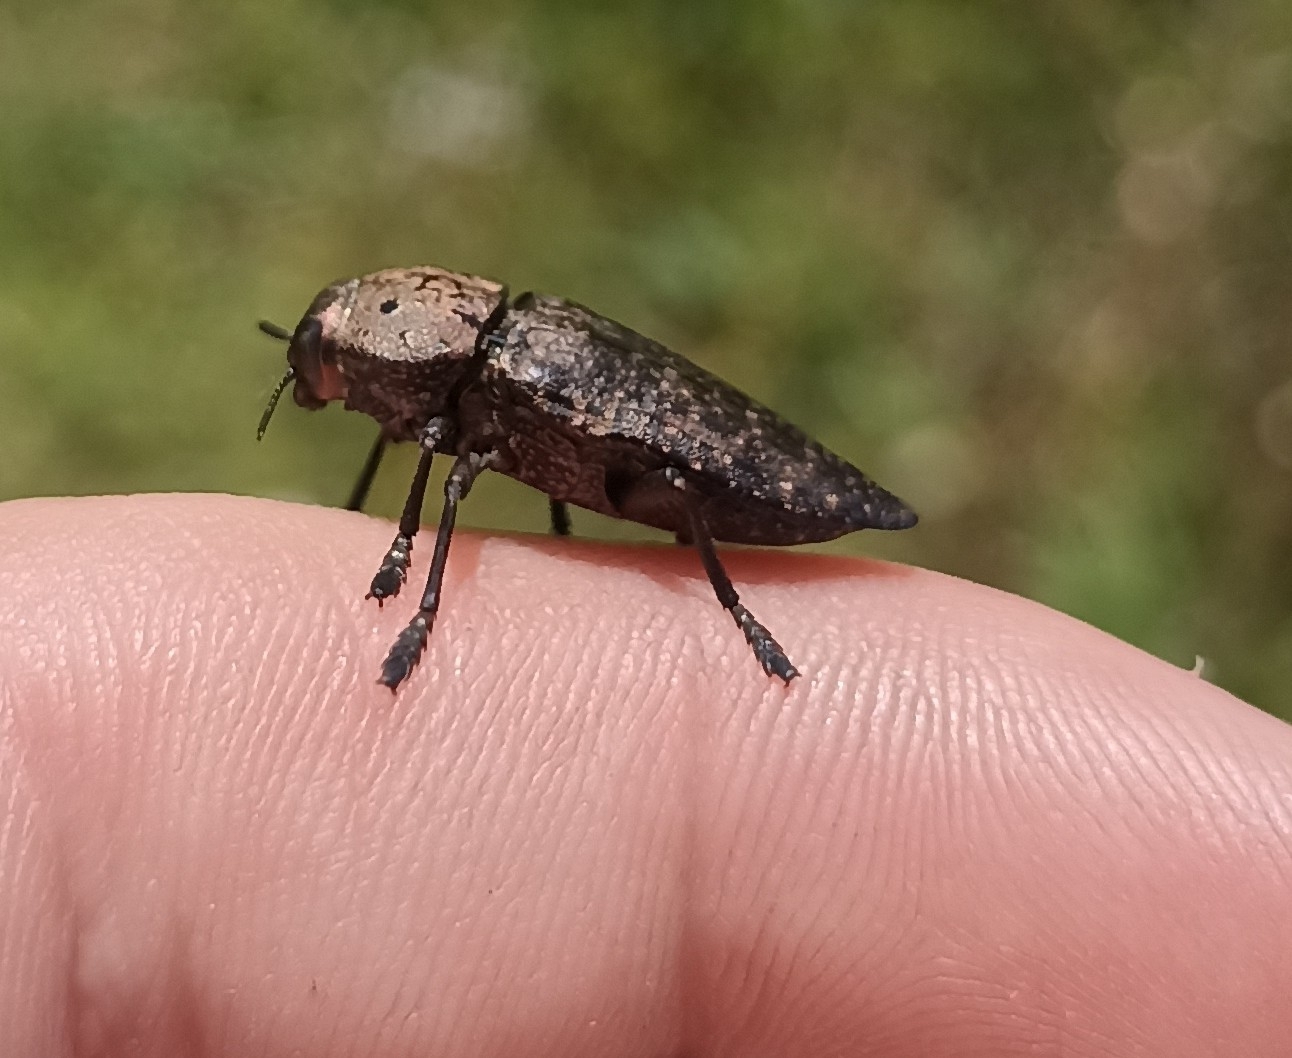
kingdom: Animalia
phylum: Arthropoda
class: Insecta
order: Coleoptera
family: Buprestidae
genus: Capnodis
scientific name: Capnodis tenebricosa
